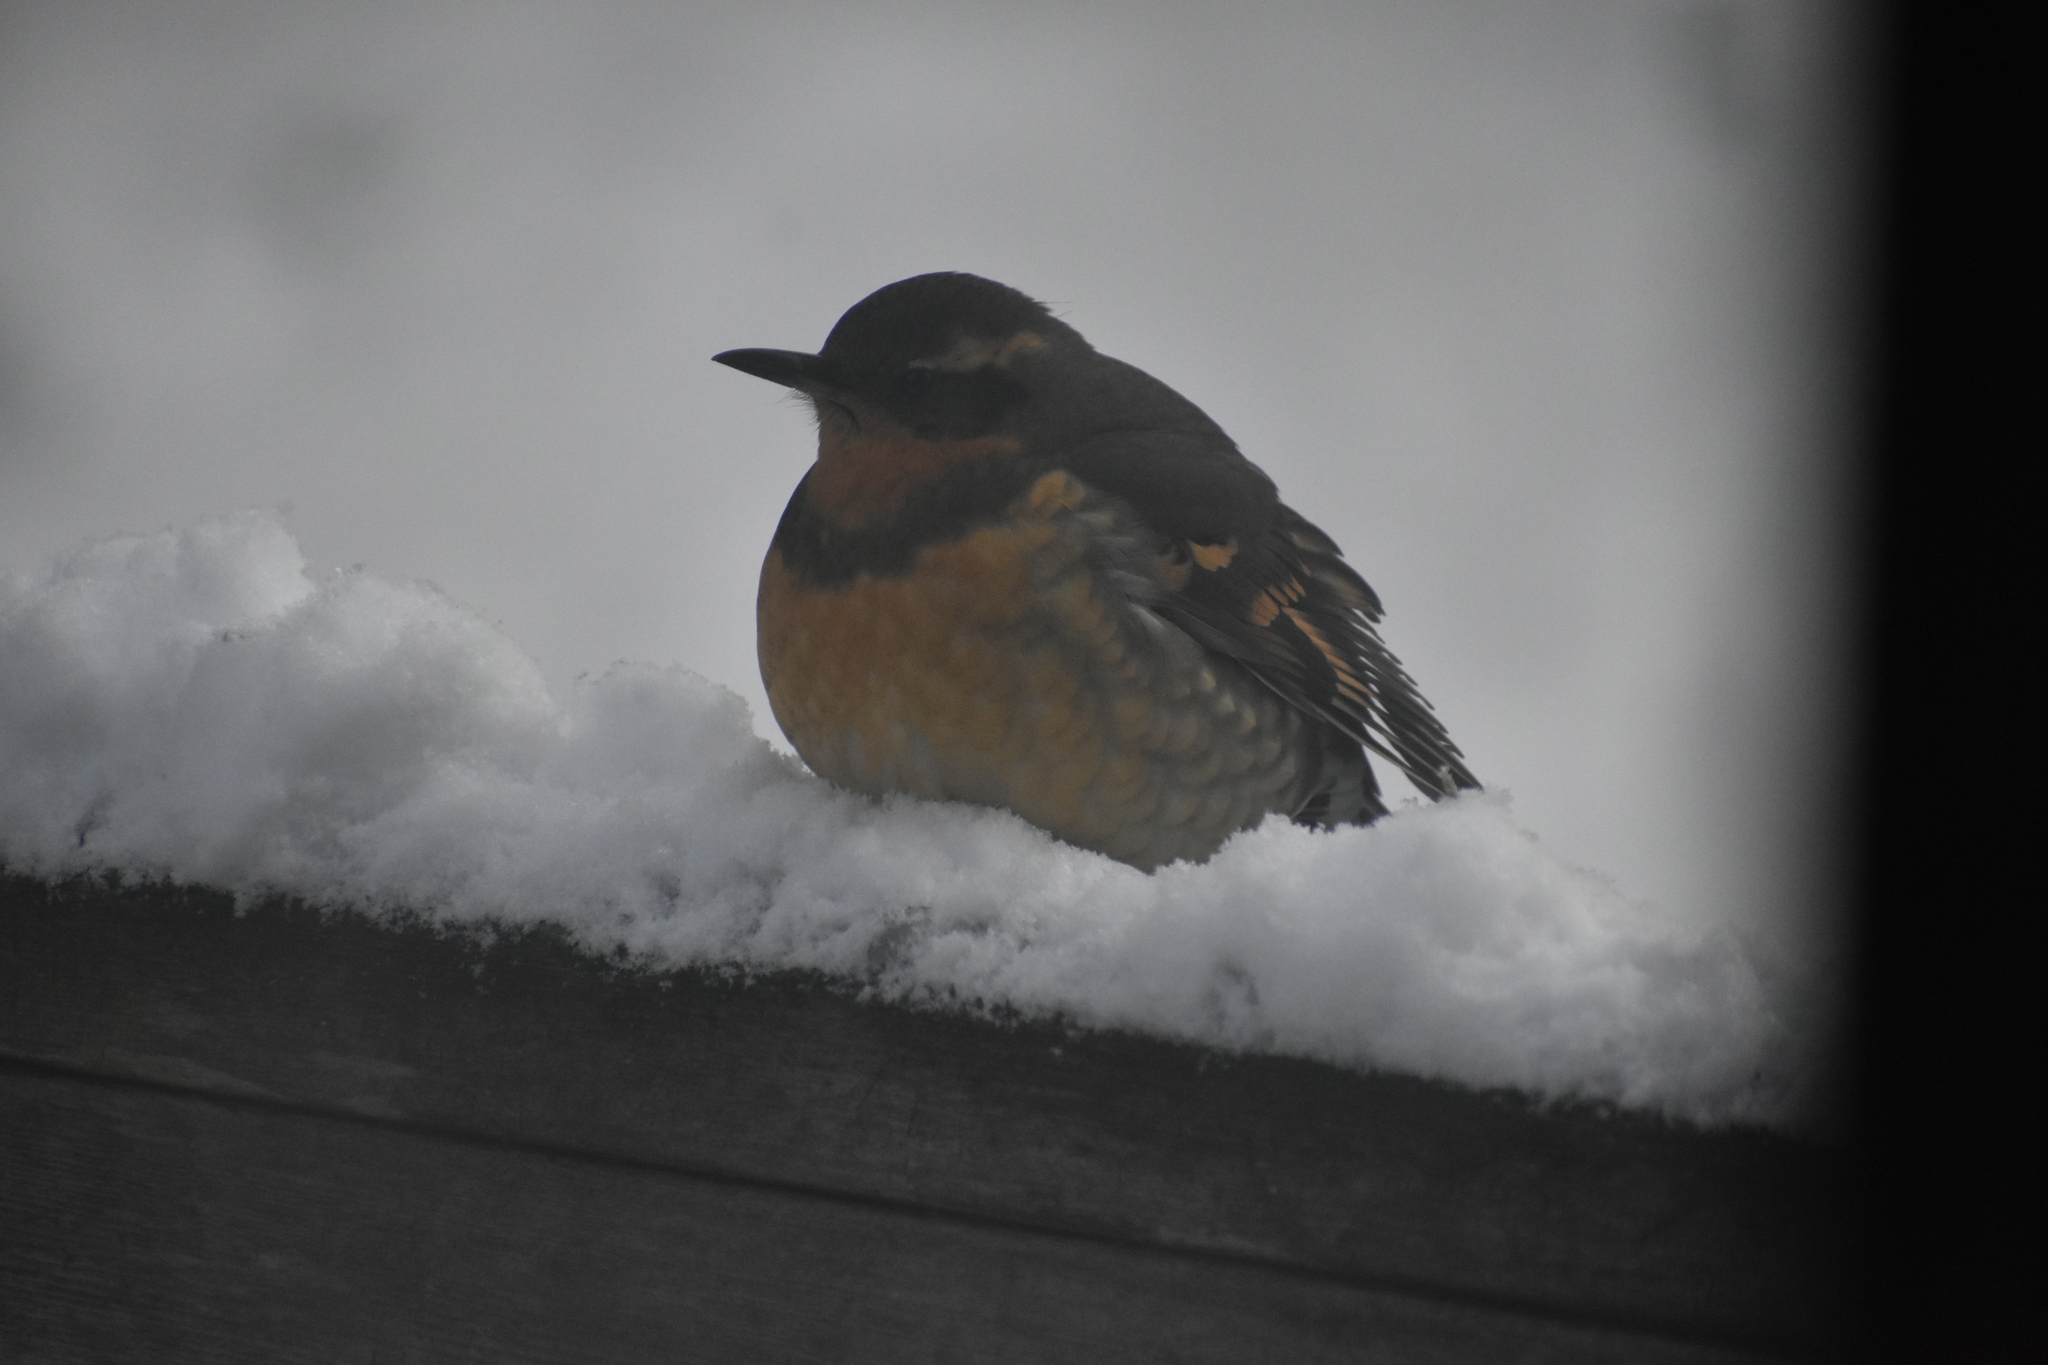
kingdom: Animalia
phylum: Chordata
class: Aves
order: Passeriformes
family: Turdidae
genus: Ixoreus
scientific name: Ixoreus naevius
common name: Varied thrush
